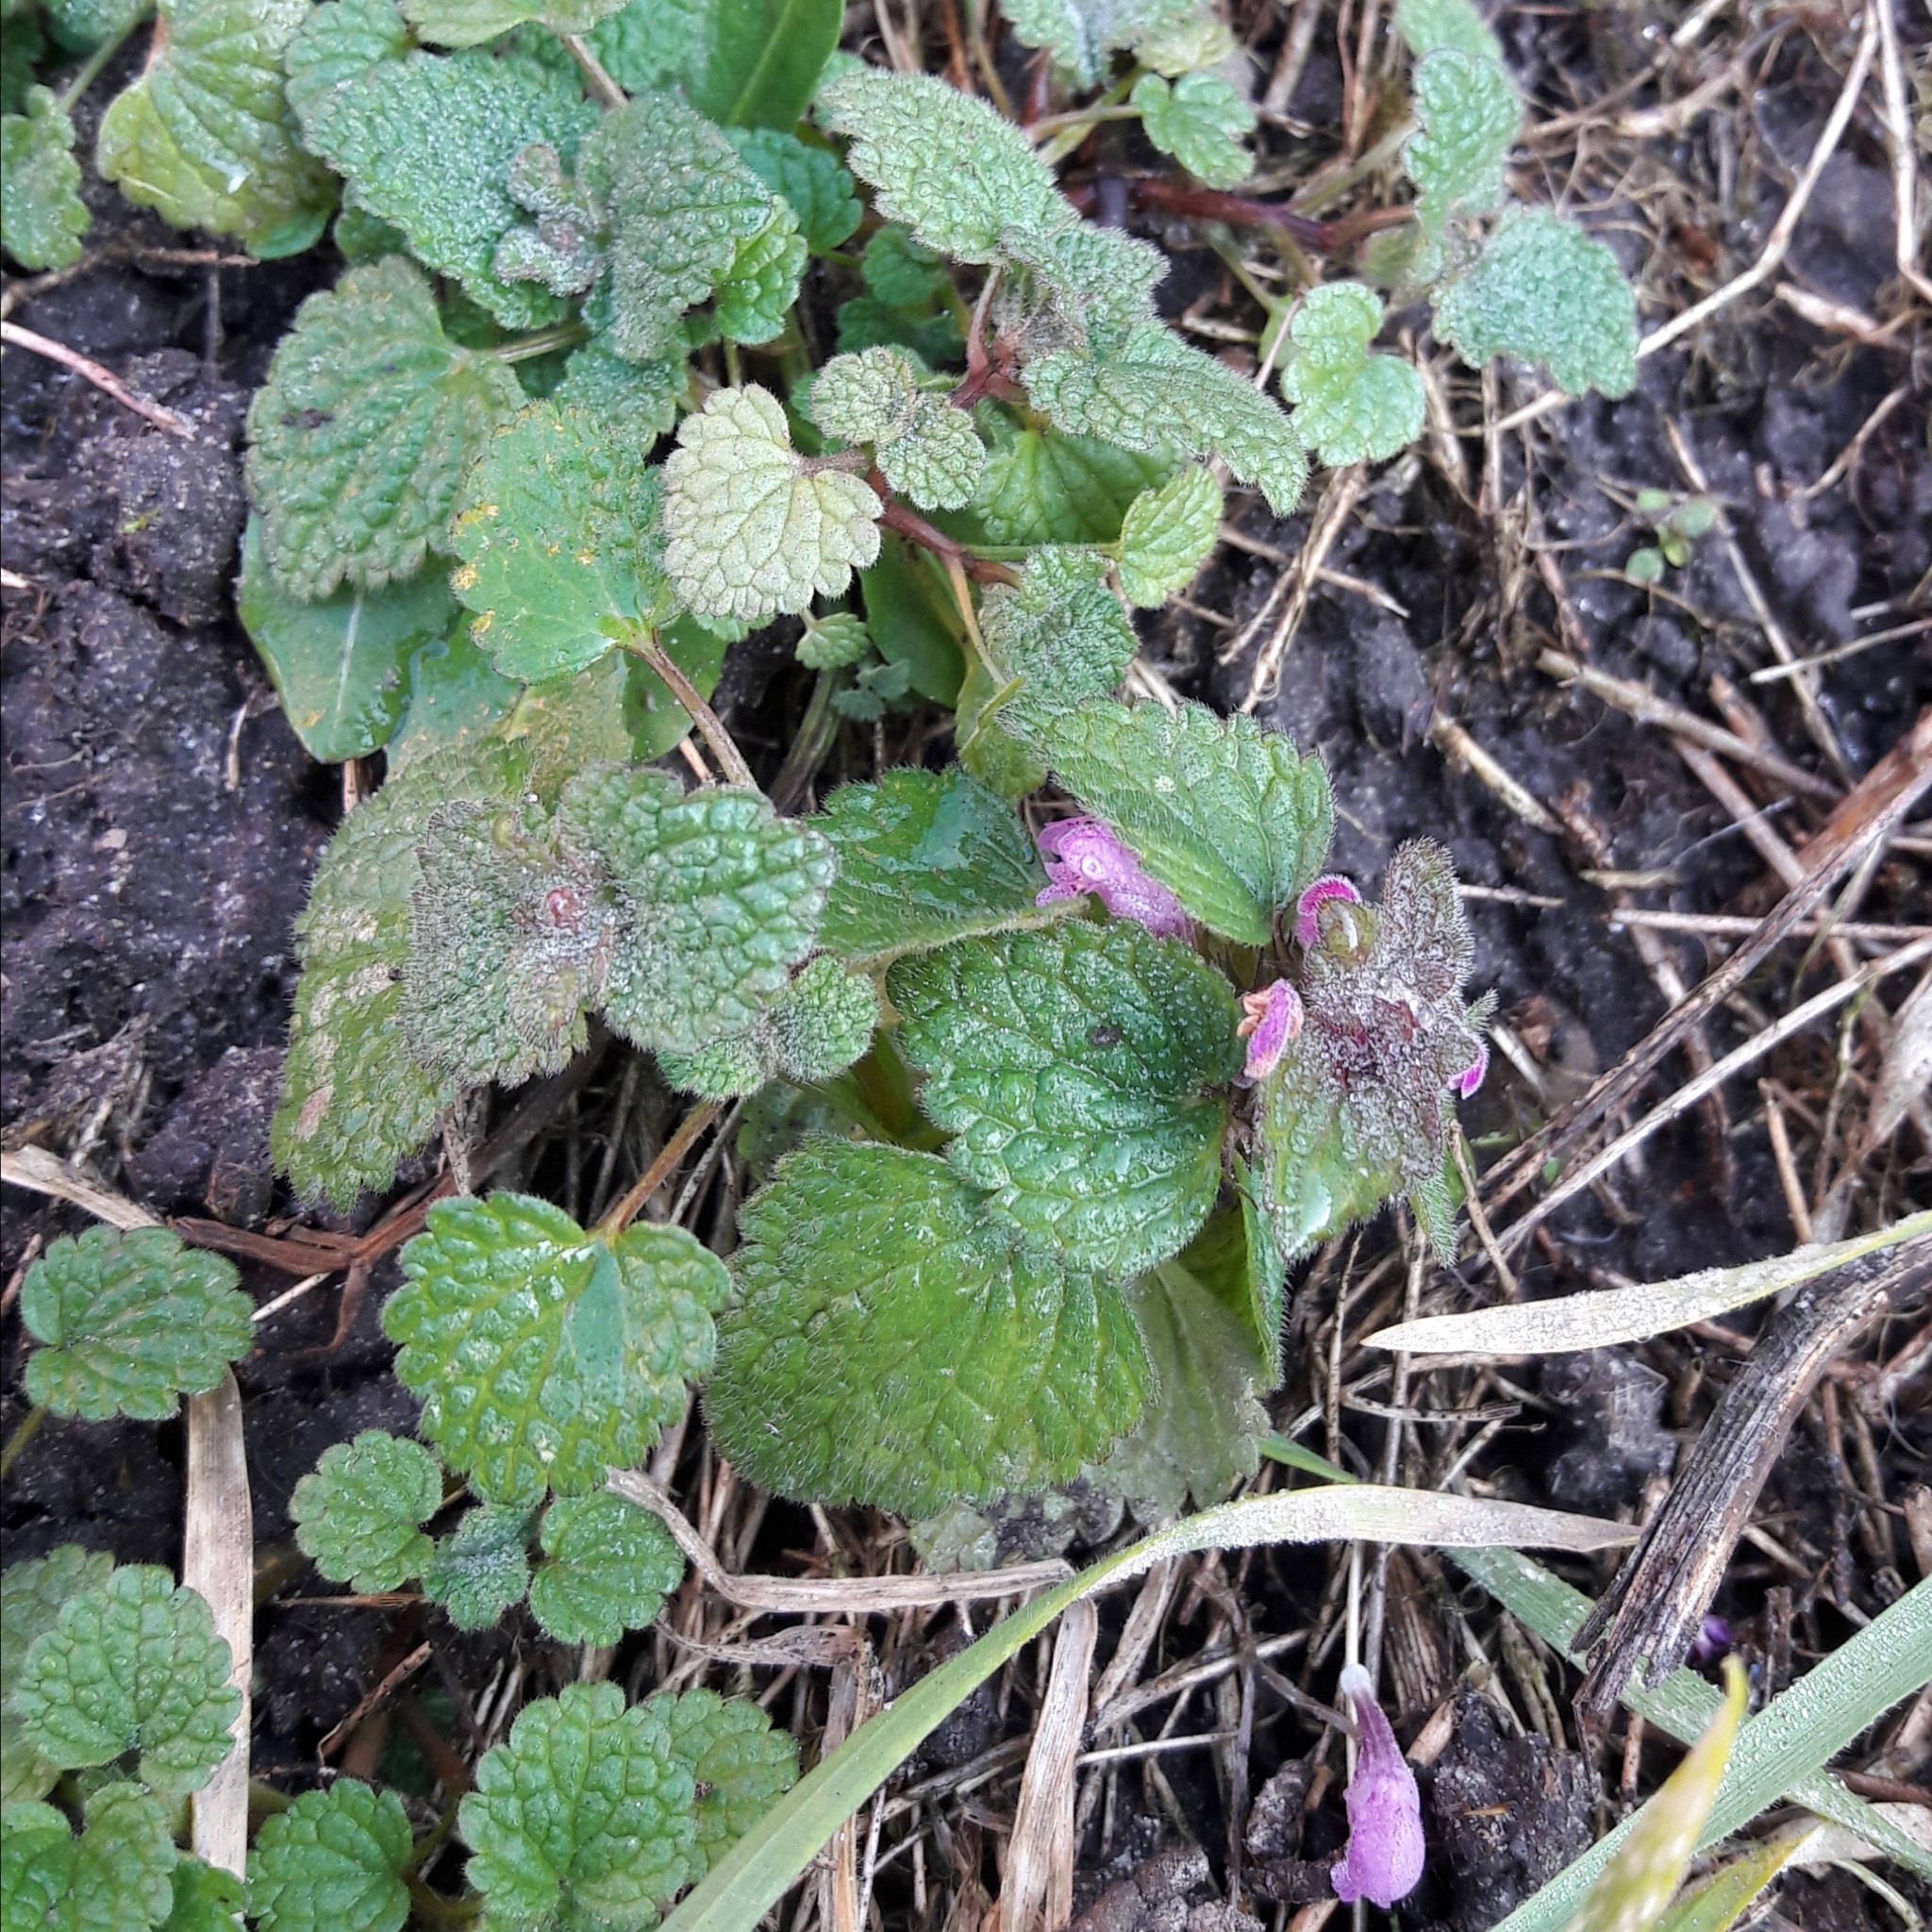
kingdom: Plantae
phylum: Tracheophyta
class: Magnoliopsida
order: Lamiales
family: Lamiaceae
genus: Lamium
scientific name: Lamium purpureum
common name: Red dead-nettle
